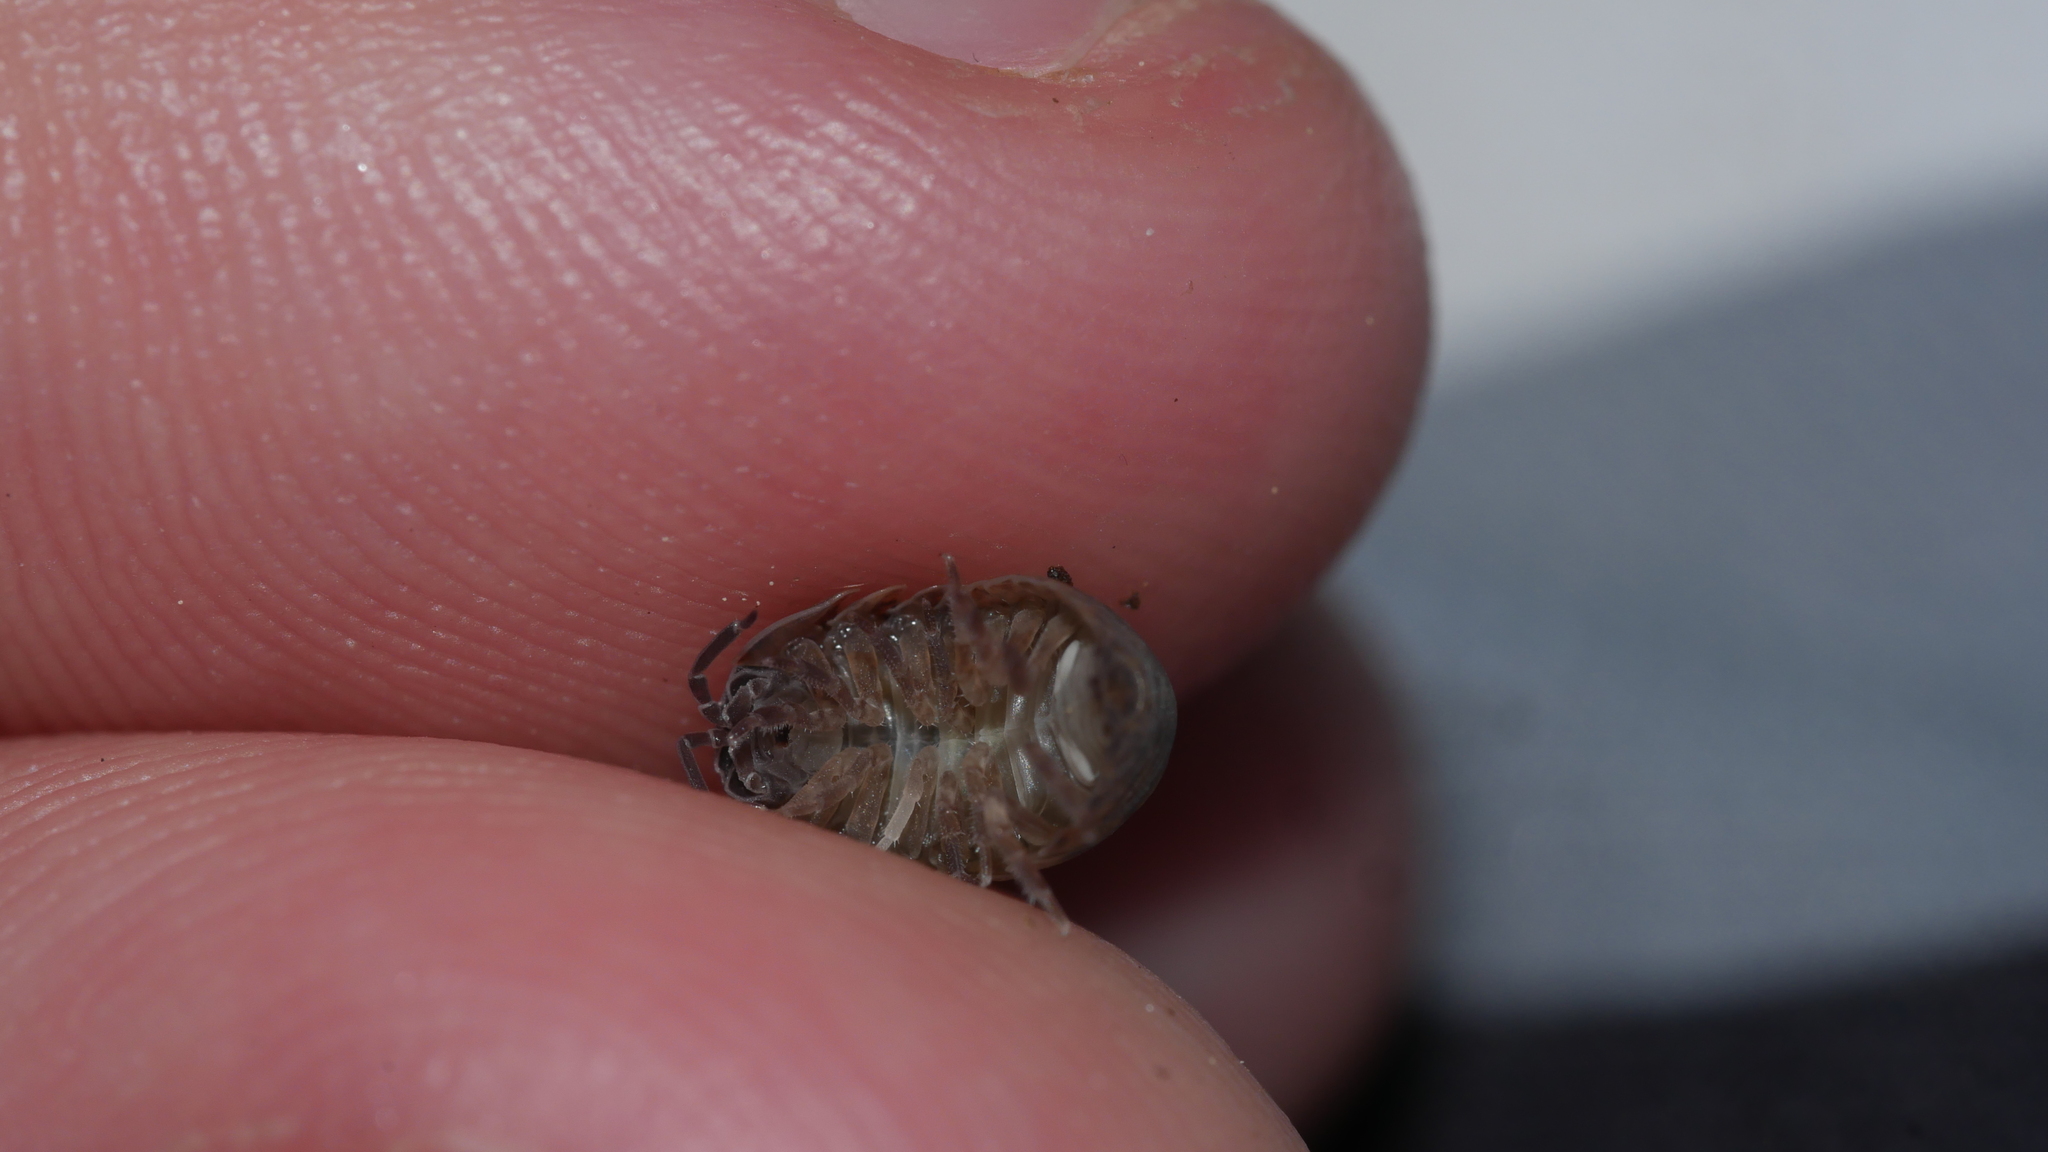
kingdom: Animalia
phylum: Arthropoda
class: Malacostraca
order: Isopoda
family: Armadillidiidae
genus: Armadillidium
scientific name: Armadillidium vulgare
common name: Common pill woodlouse
